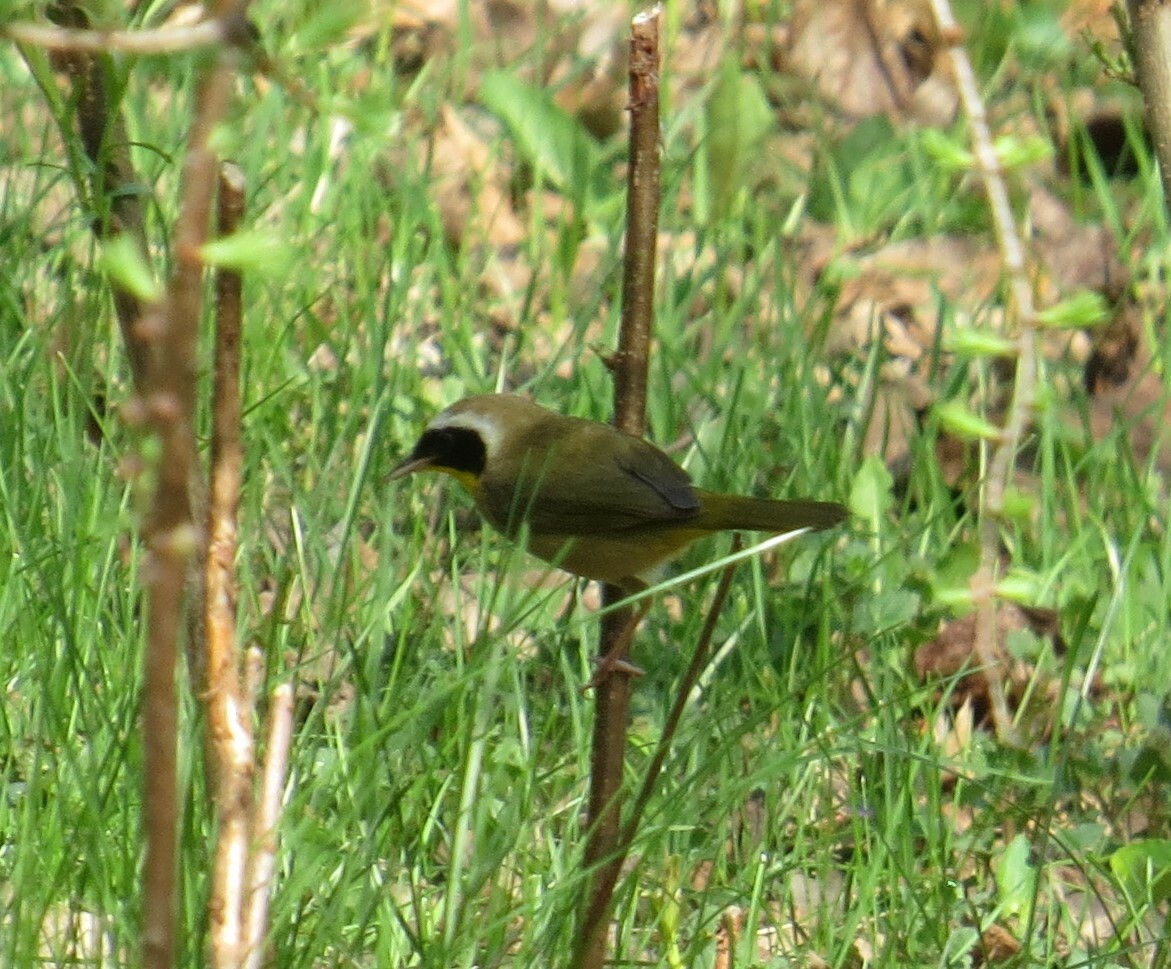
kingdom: Animalia
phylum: Chordata
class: Aves
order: Passeriformes
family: Parulidae
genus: Geothlypis
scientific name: Geothlypis trichas
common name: Common yellowthroat
